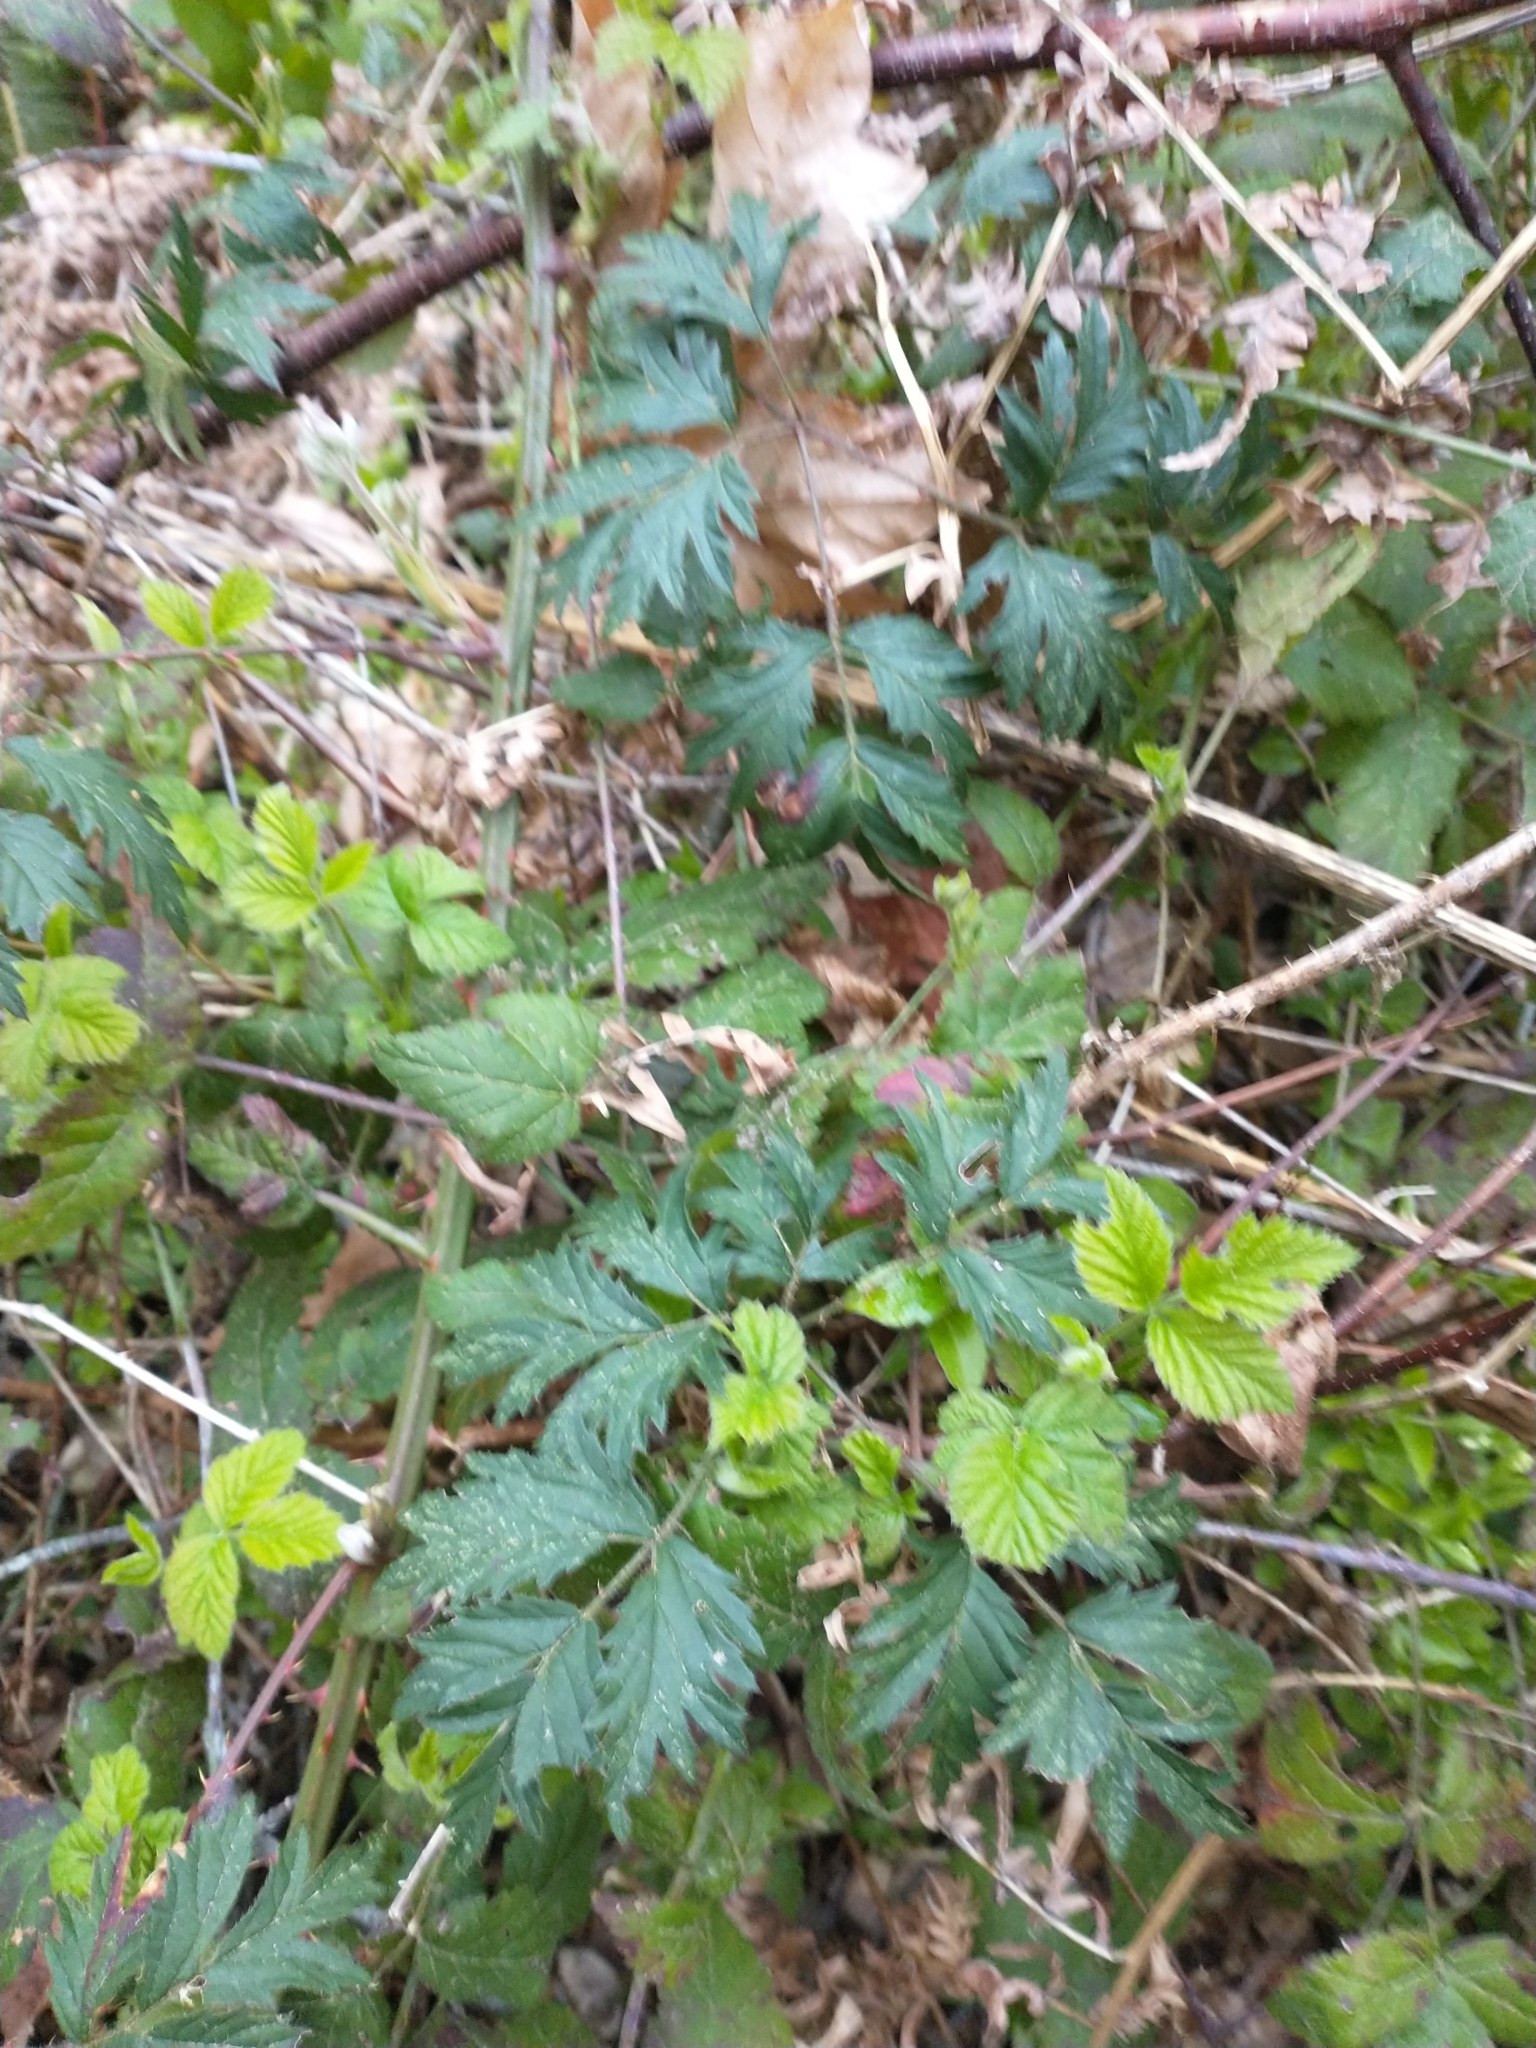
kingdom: Plantae
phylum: Tracheophyta
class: Magnoliopsida
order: Rosales
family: Rosaceae
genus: Rubus
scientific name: Rubus laciniatus
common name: Evergreen blackberry
